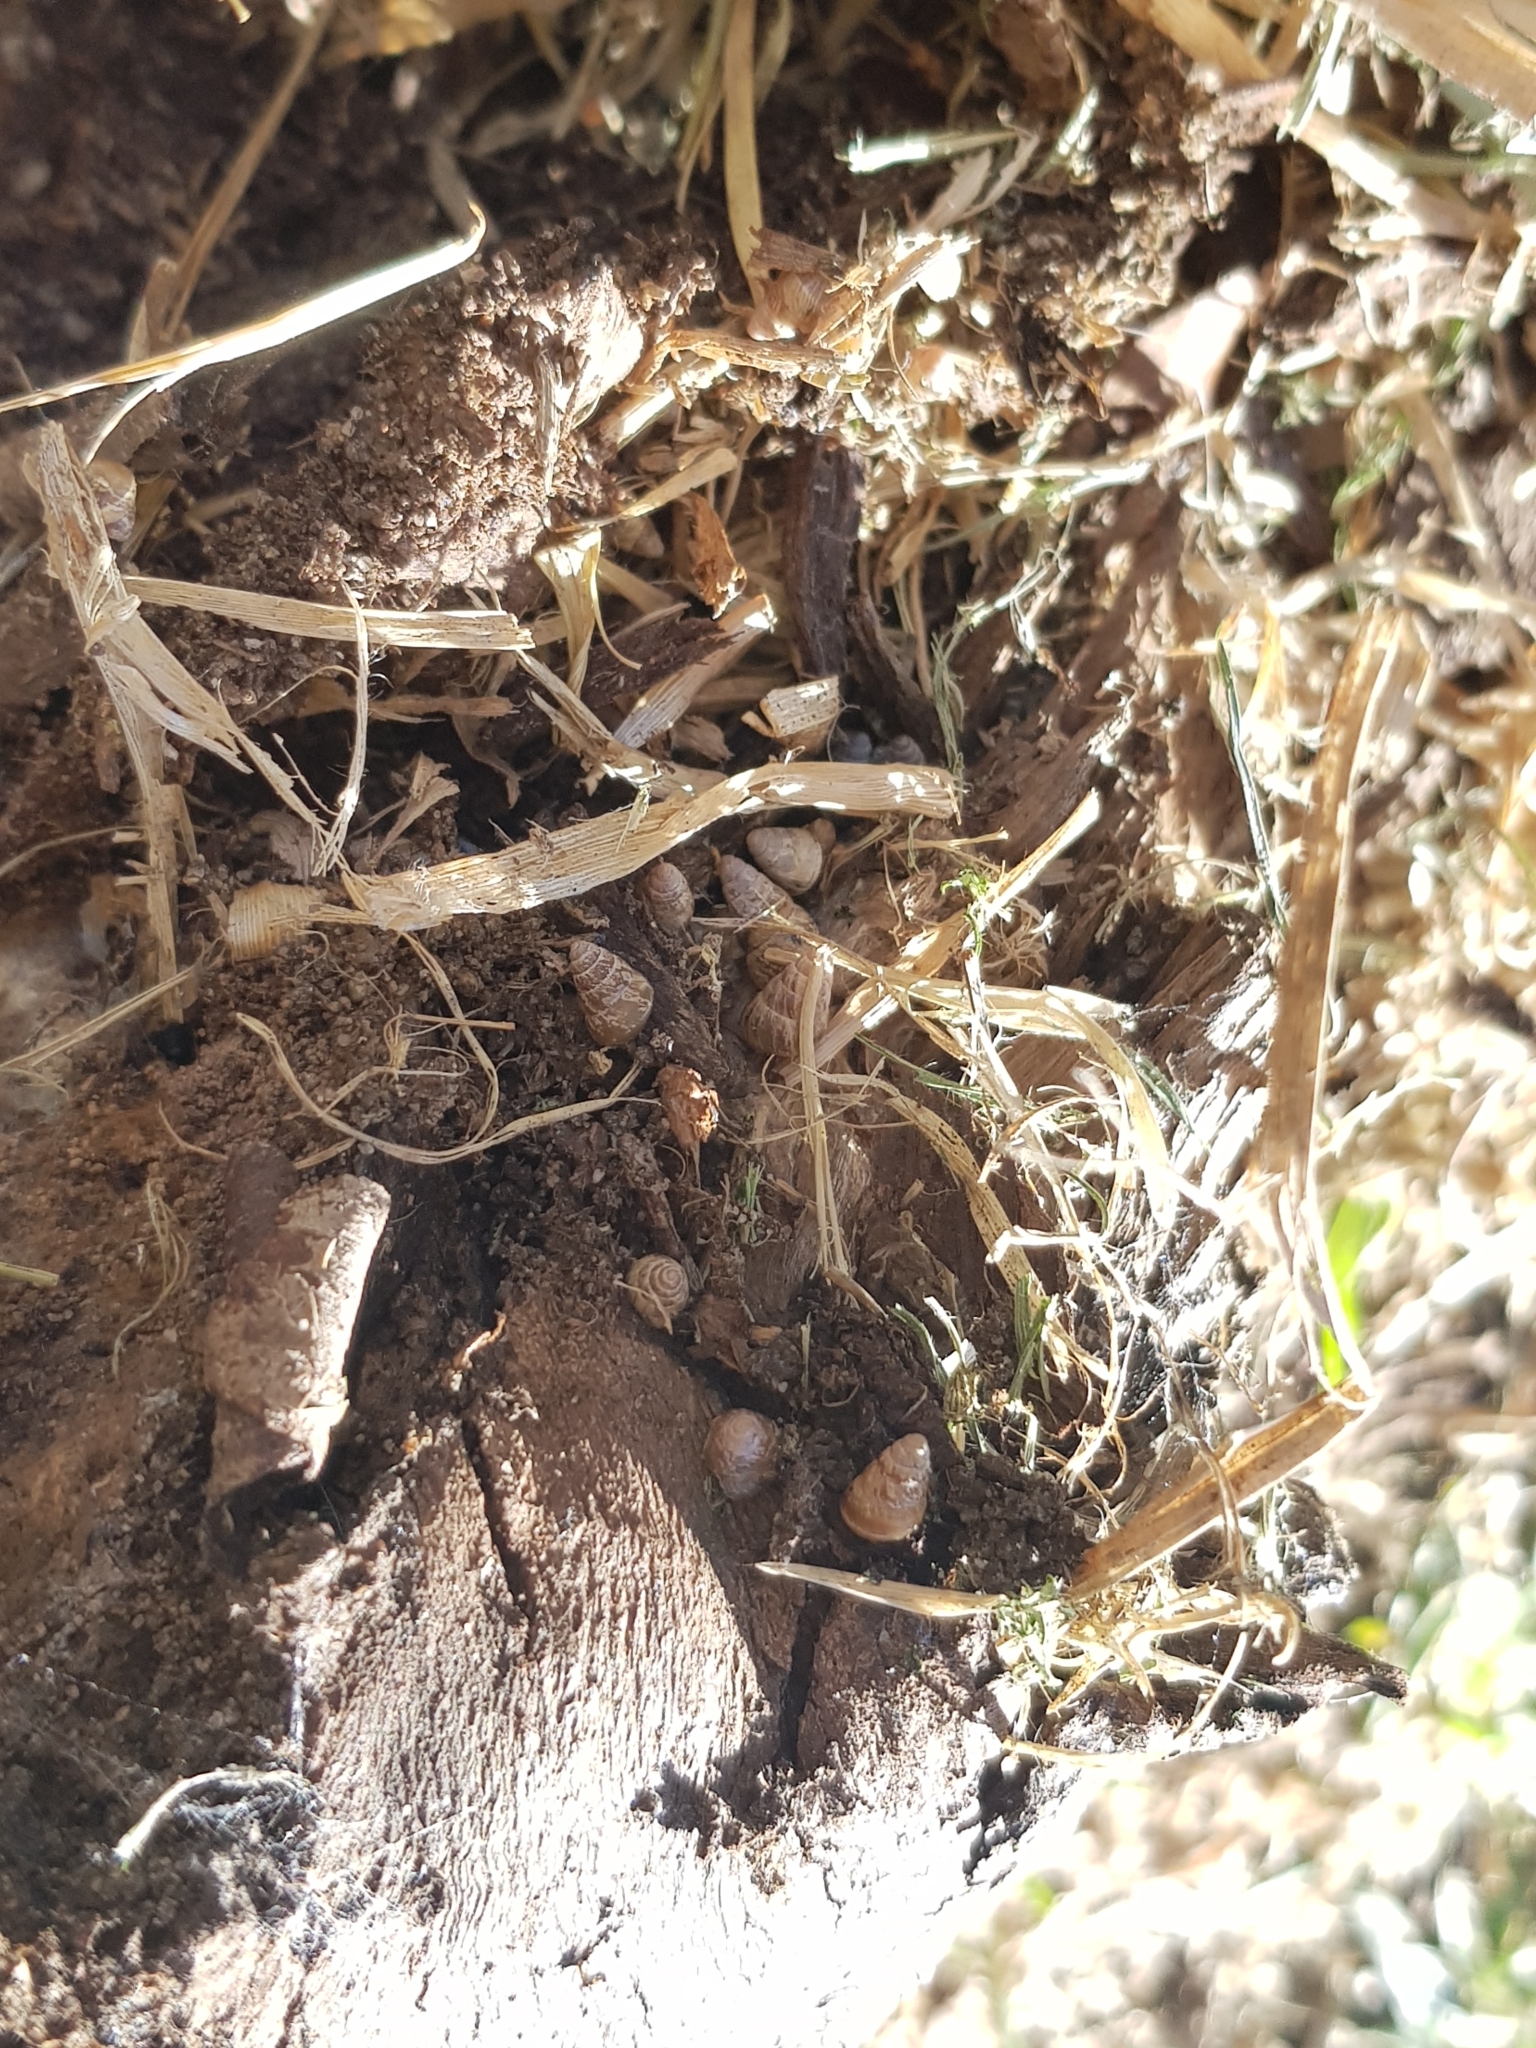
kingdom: Animalia
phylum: Mollusca
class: Gastropoda
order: Stylommatophora
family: Geomitridae
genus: Cochlicella
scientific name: Cochlicella barbara
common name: Potbellied helicellid
